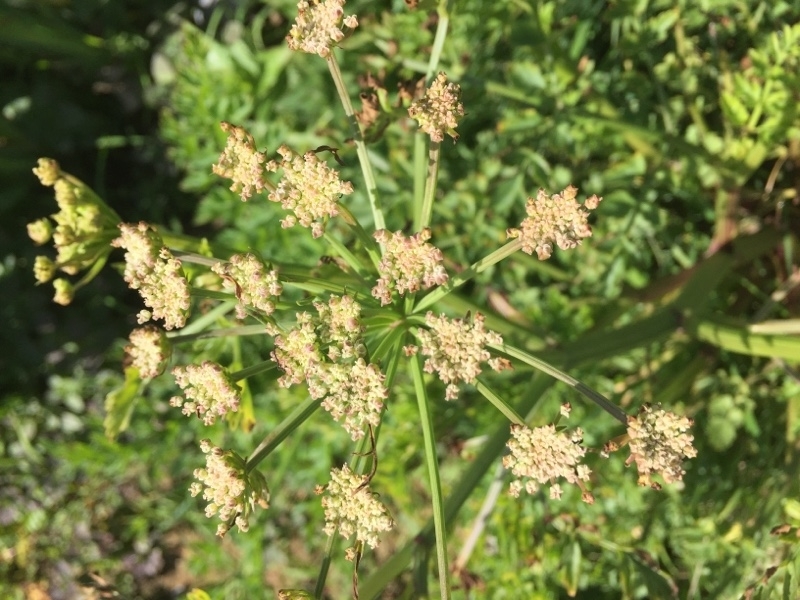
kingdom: Plantae
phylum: Tracheophyta
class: Magnoliopsida
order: Apiales
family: Apiaceae
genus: Oenanthe
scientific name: Oenanthe crocata
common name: Hemlock water-dropwort
